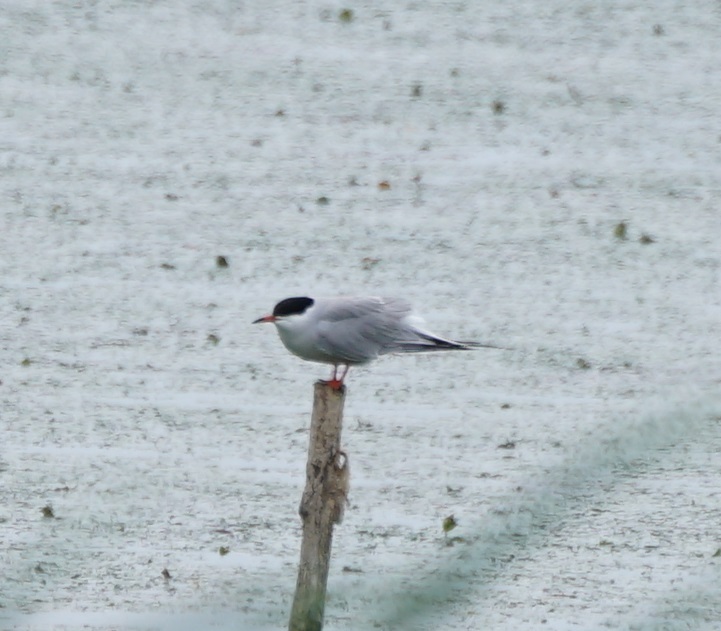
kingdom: Animalia
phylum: Chordata
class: Aves
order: Charadriiformes
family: Laridae
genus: Sterna
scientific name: Sterna hirundo
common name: Common tern
